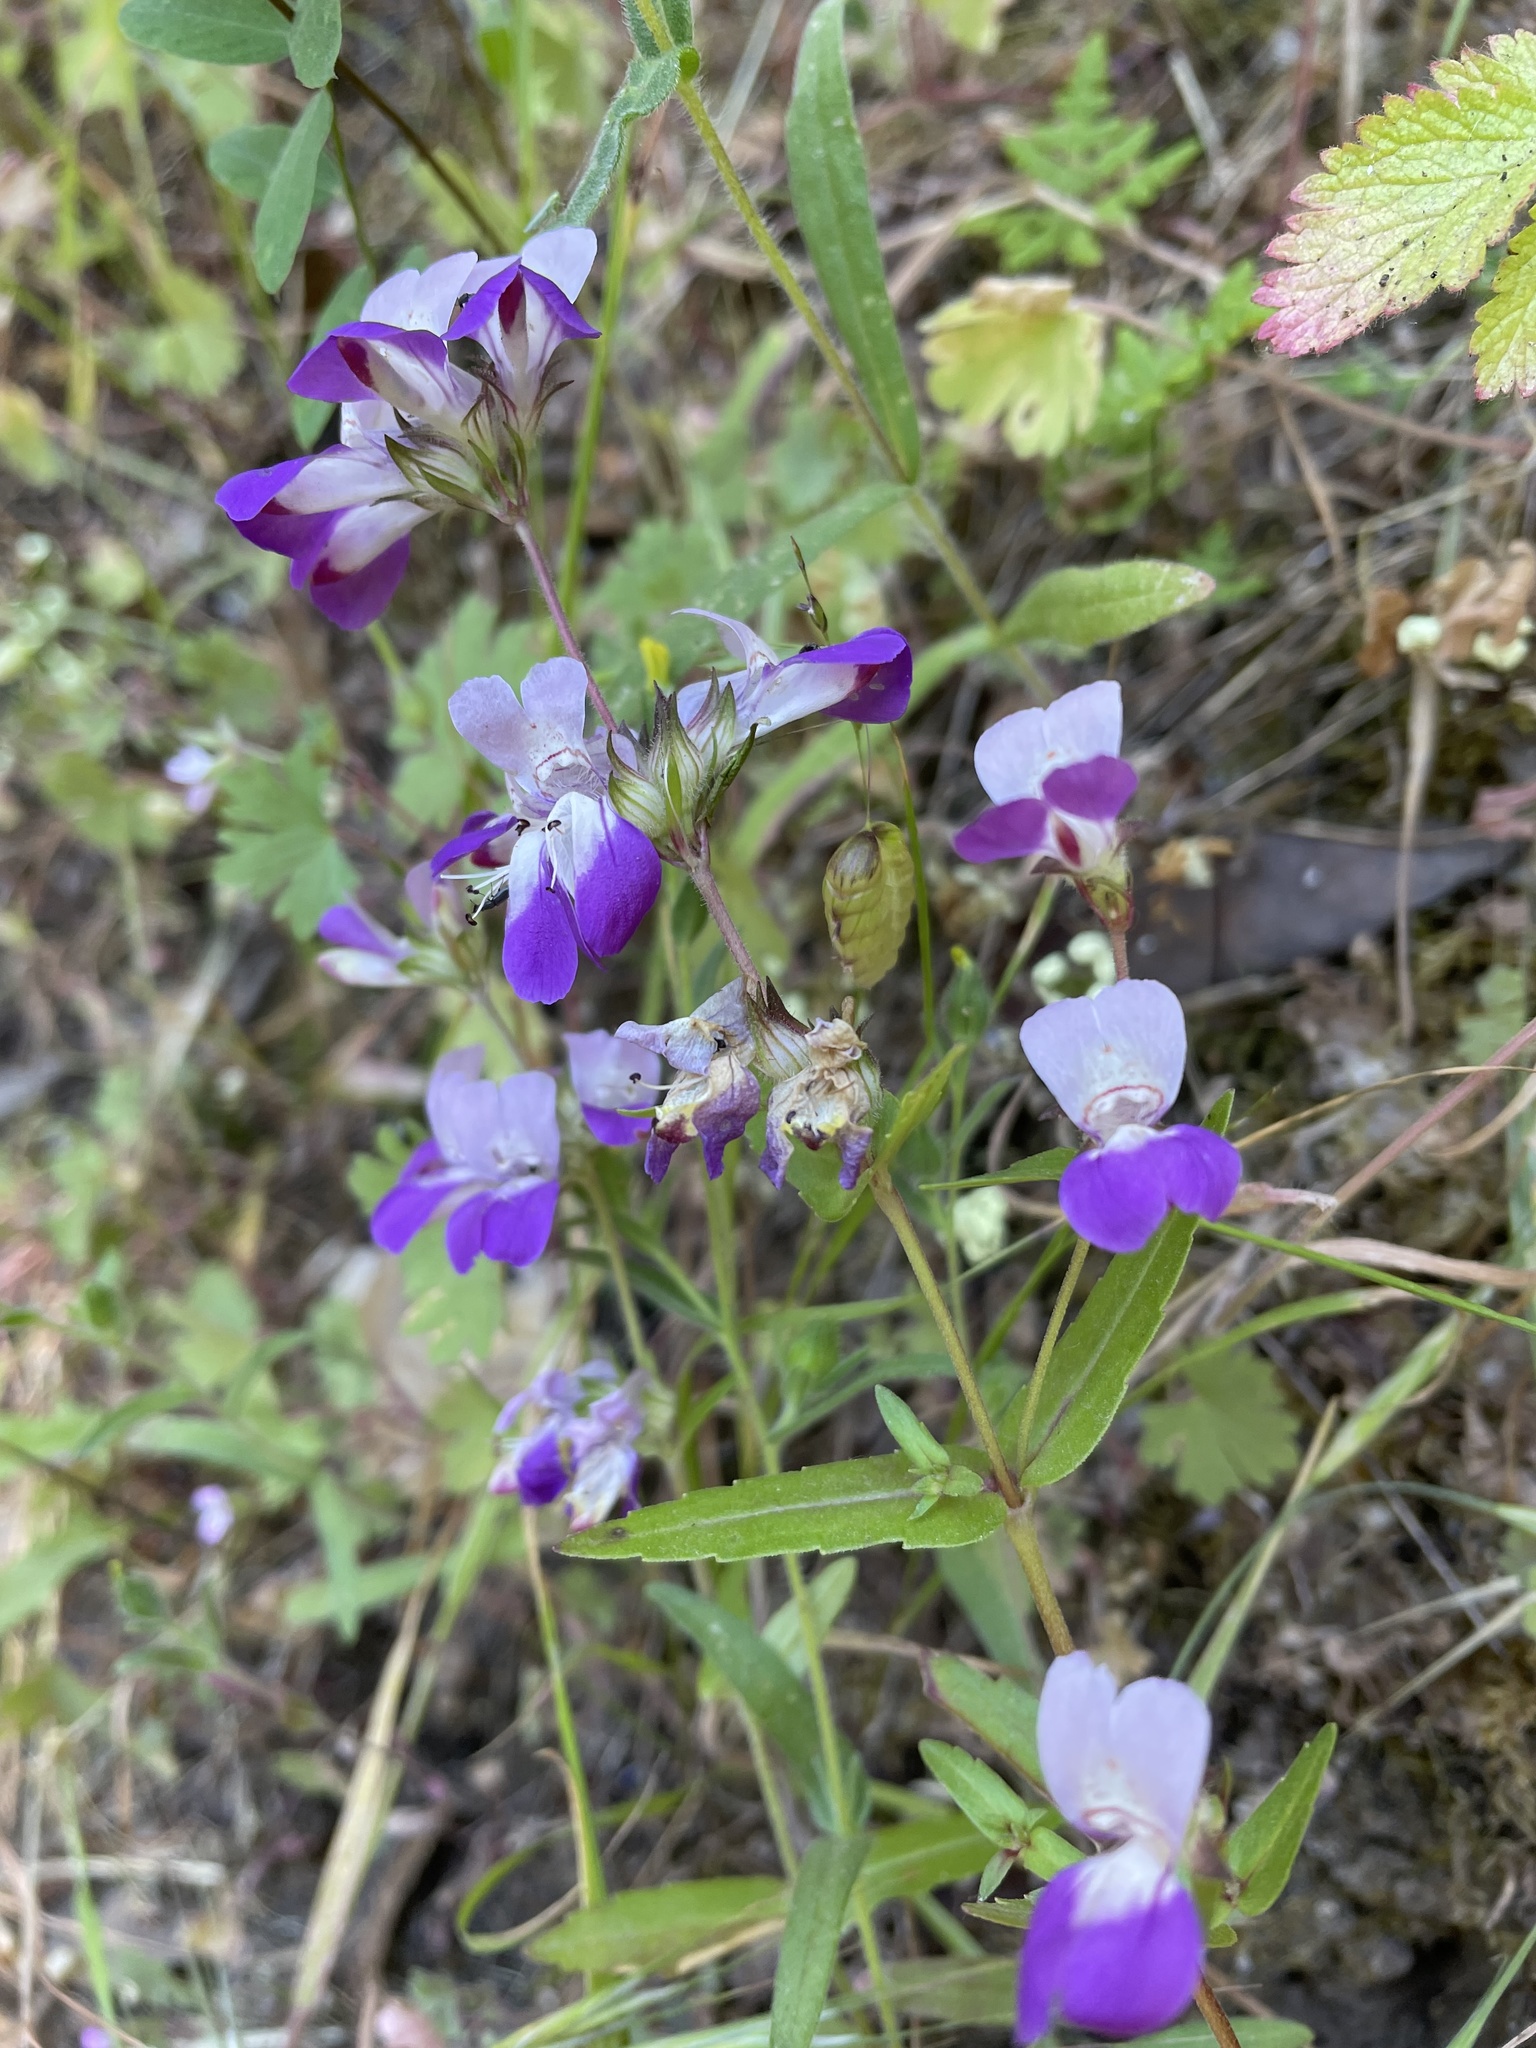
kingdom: Plantae
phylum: Tracheophyta
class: Magnoliopsida
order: Lamiales
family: Plantaginaceae
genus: Collinsia
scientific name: Collinsia heterophylla
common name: Chinese-houses
